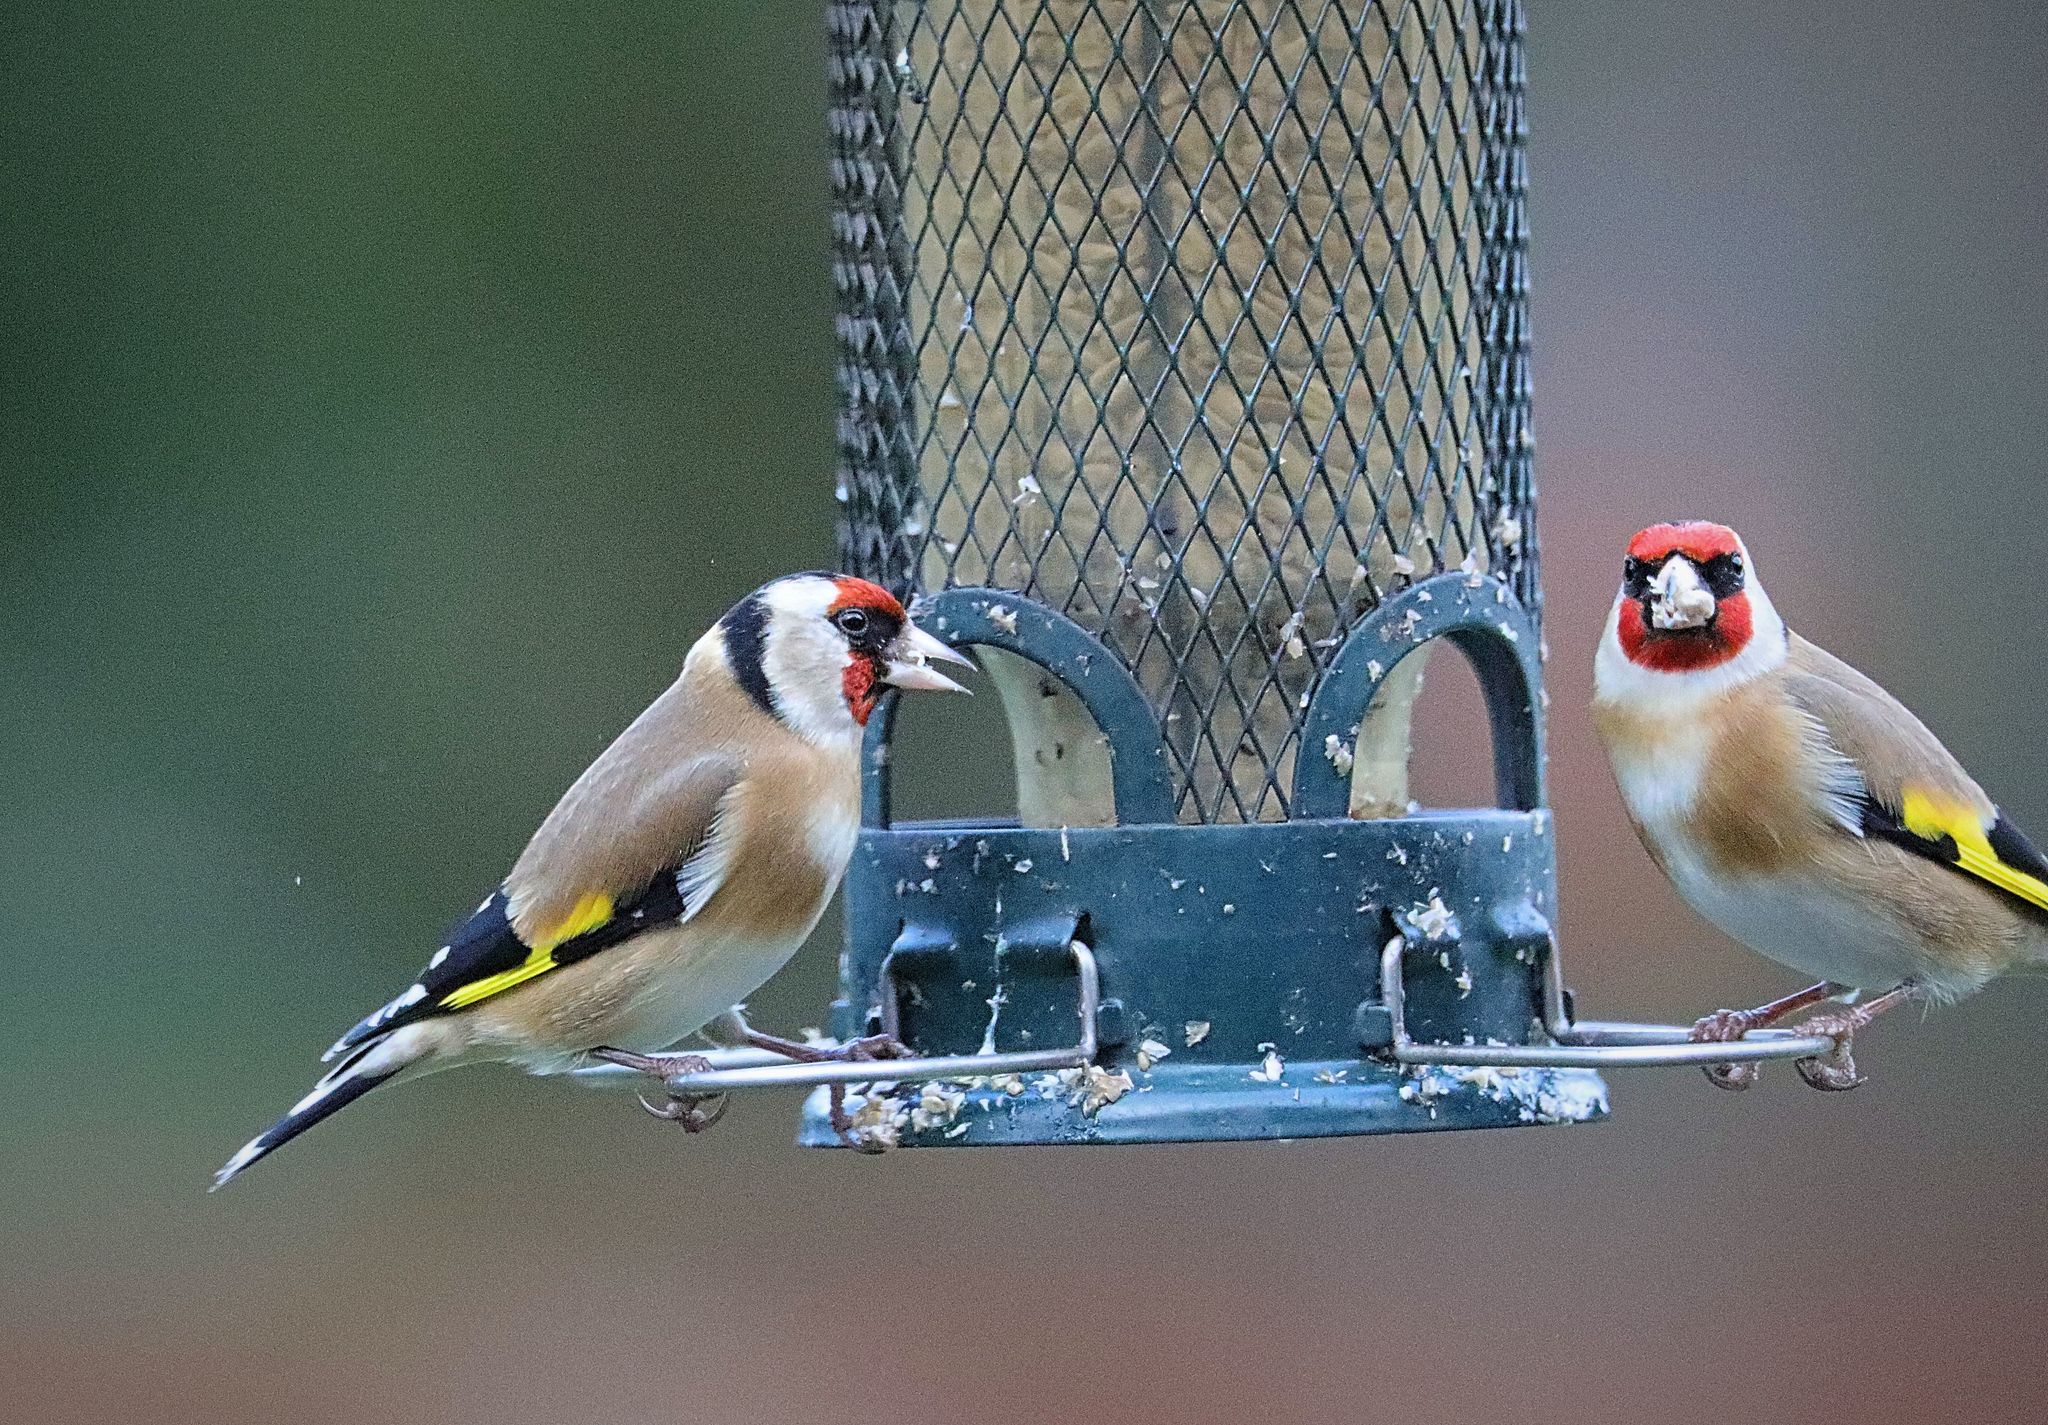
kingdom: Animalia
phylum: Chordata
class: Aves
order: Passeriformes
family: Fringillidae
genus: Carduelis
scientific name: Carduelis carduelis
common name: European goldfinch
